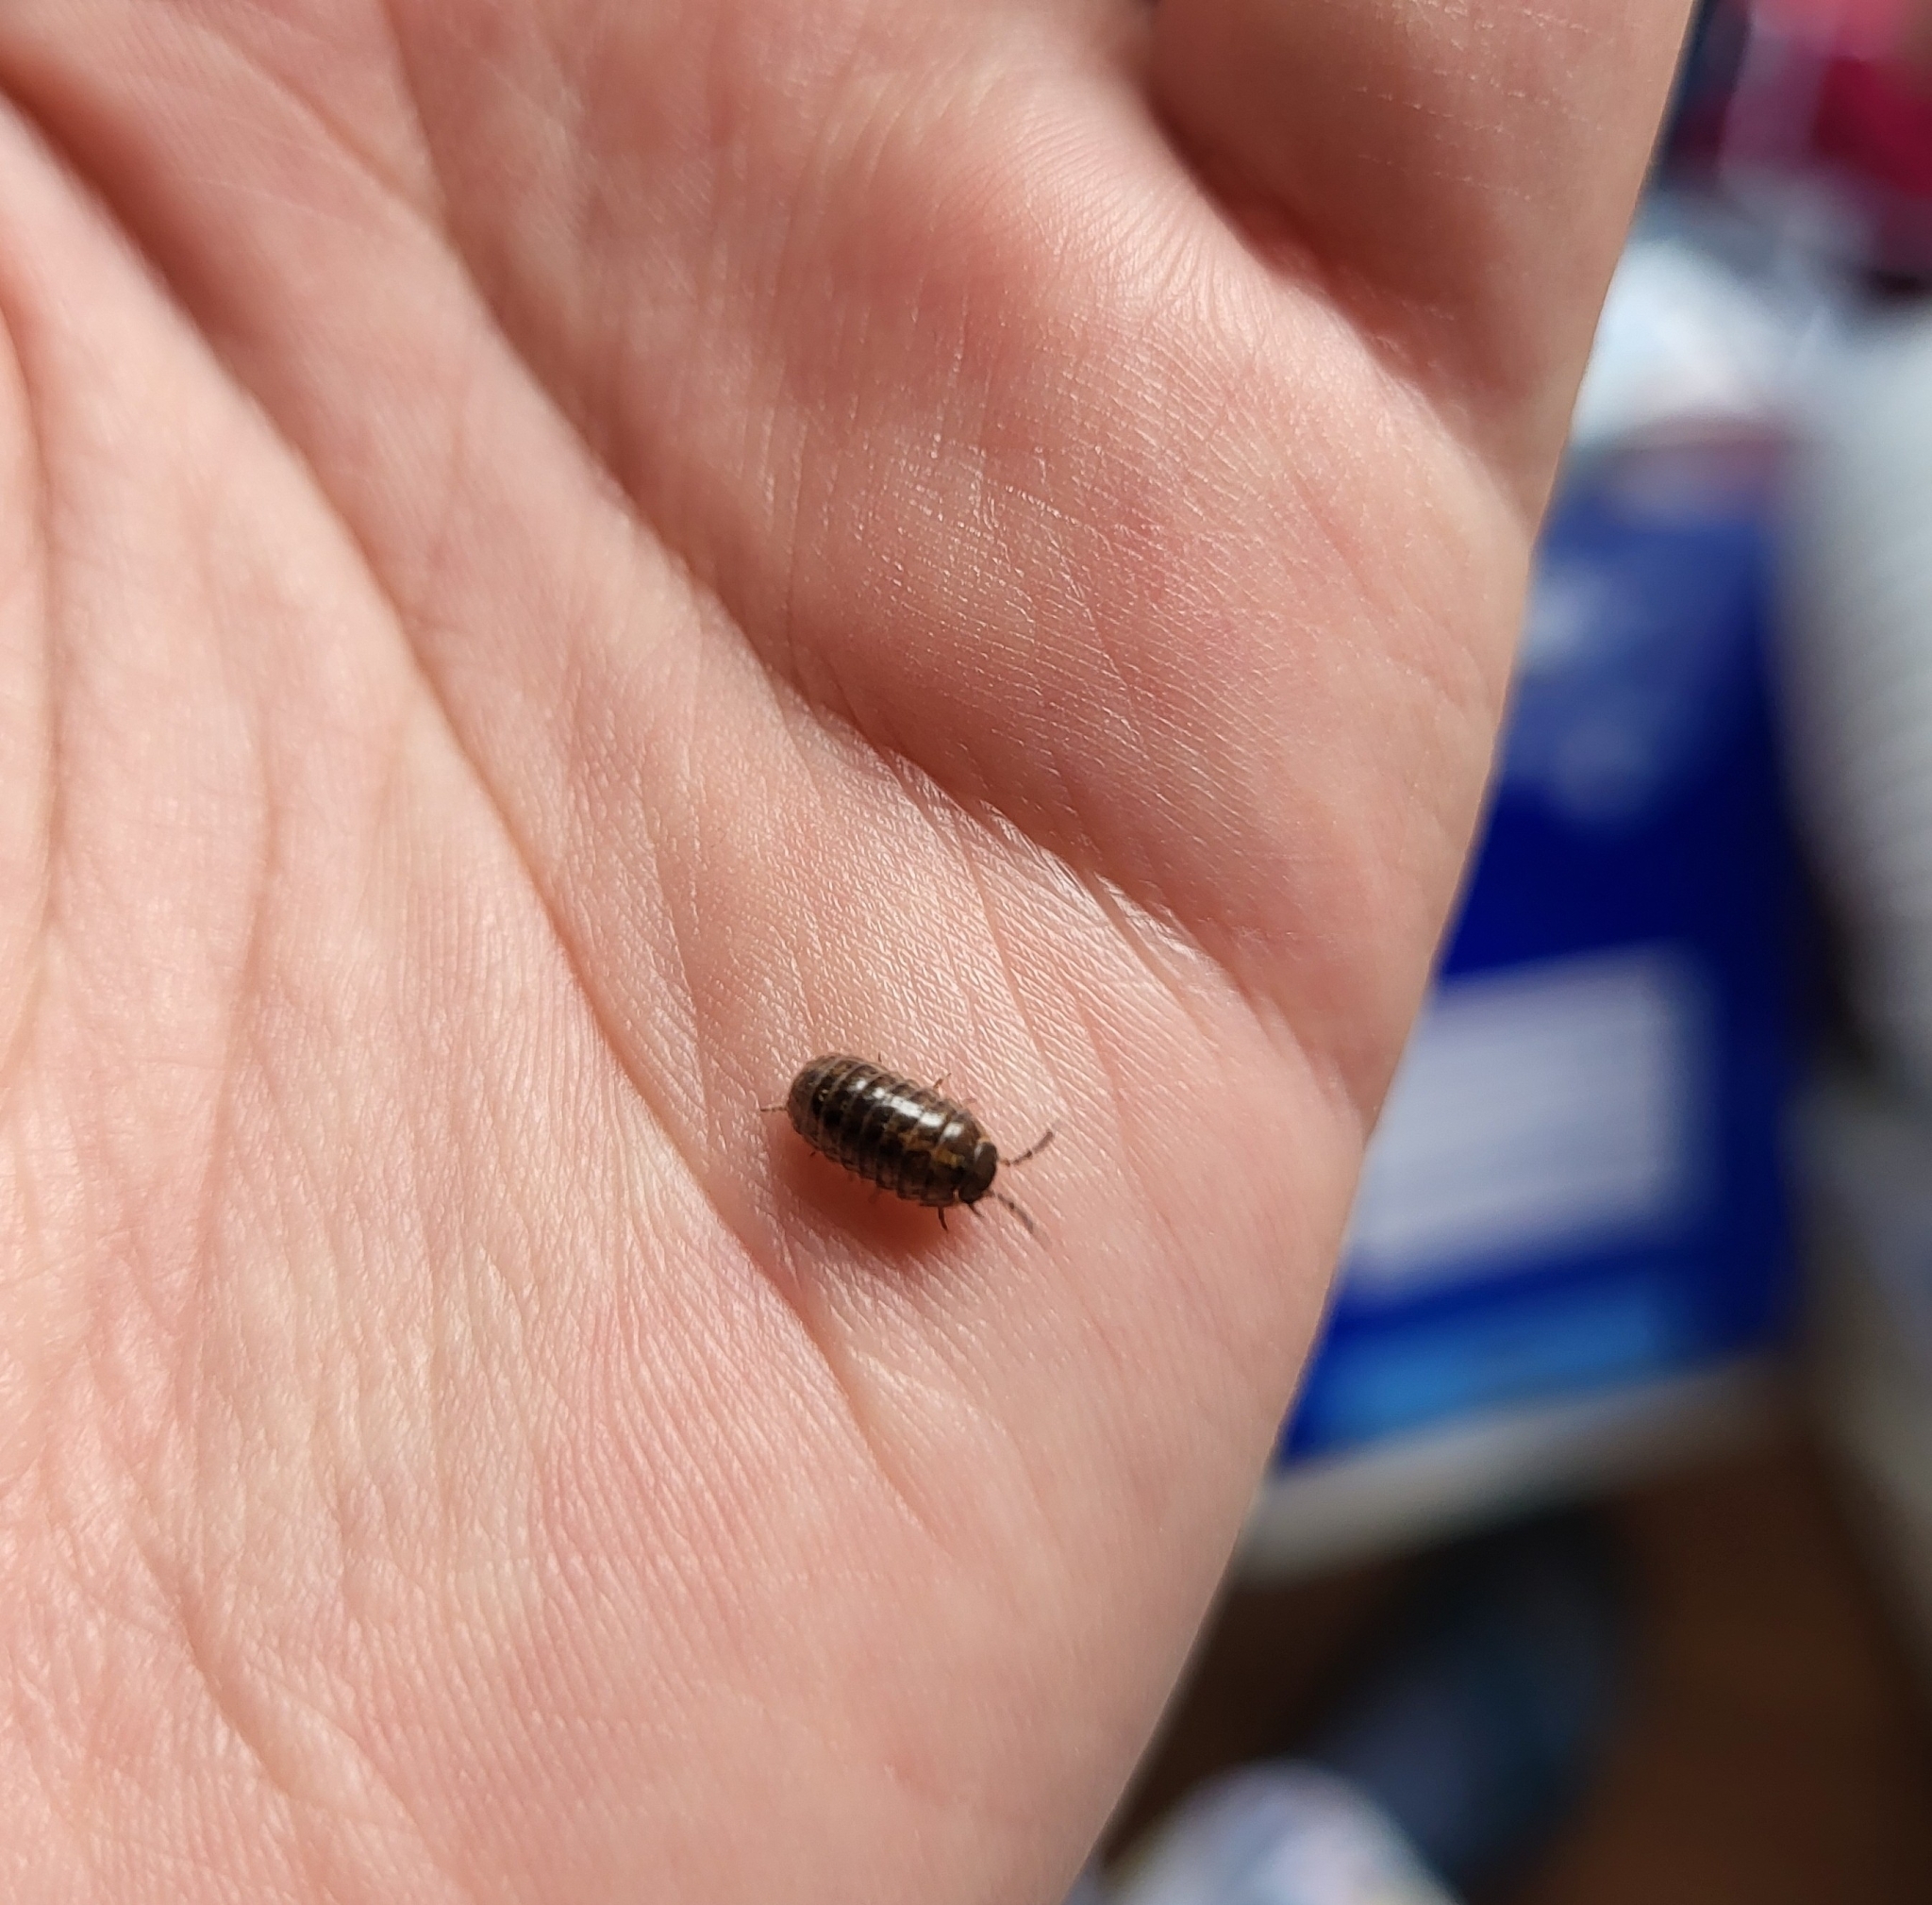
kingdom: Animalia
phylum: Arthropoda
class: Malacostraca
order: Isopoda
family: Armadillidiidae
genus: Armadillidium
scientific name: Armadillidium vulgare
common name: Common pill woodlouse
